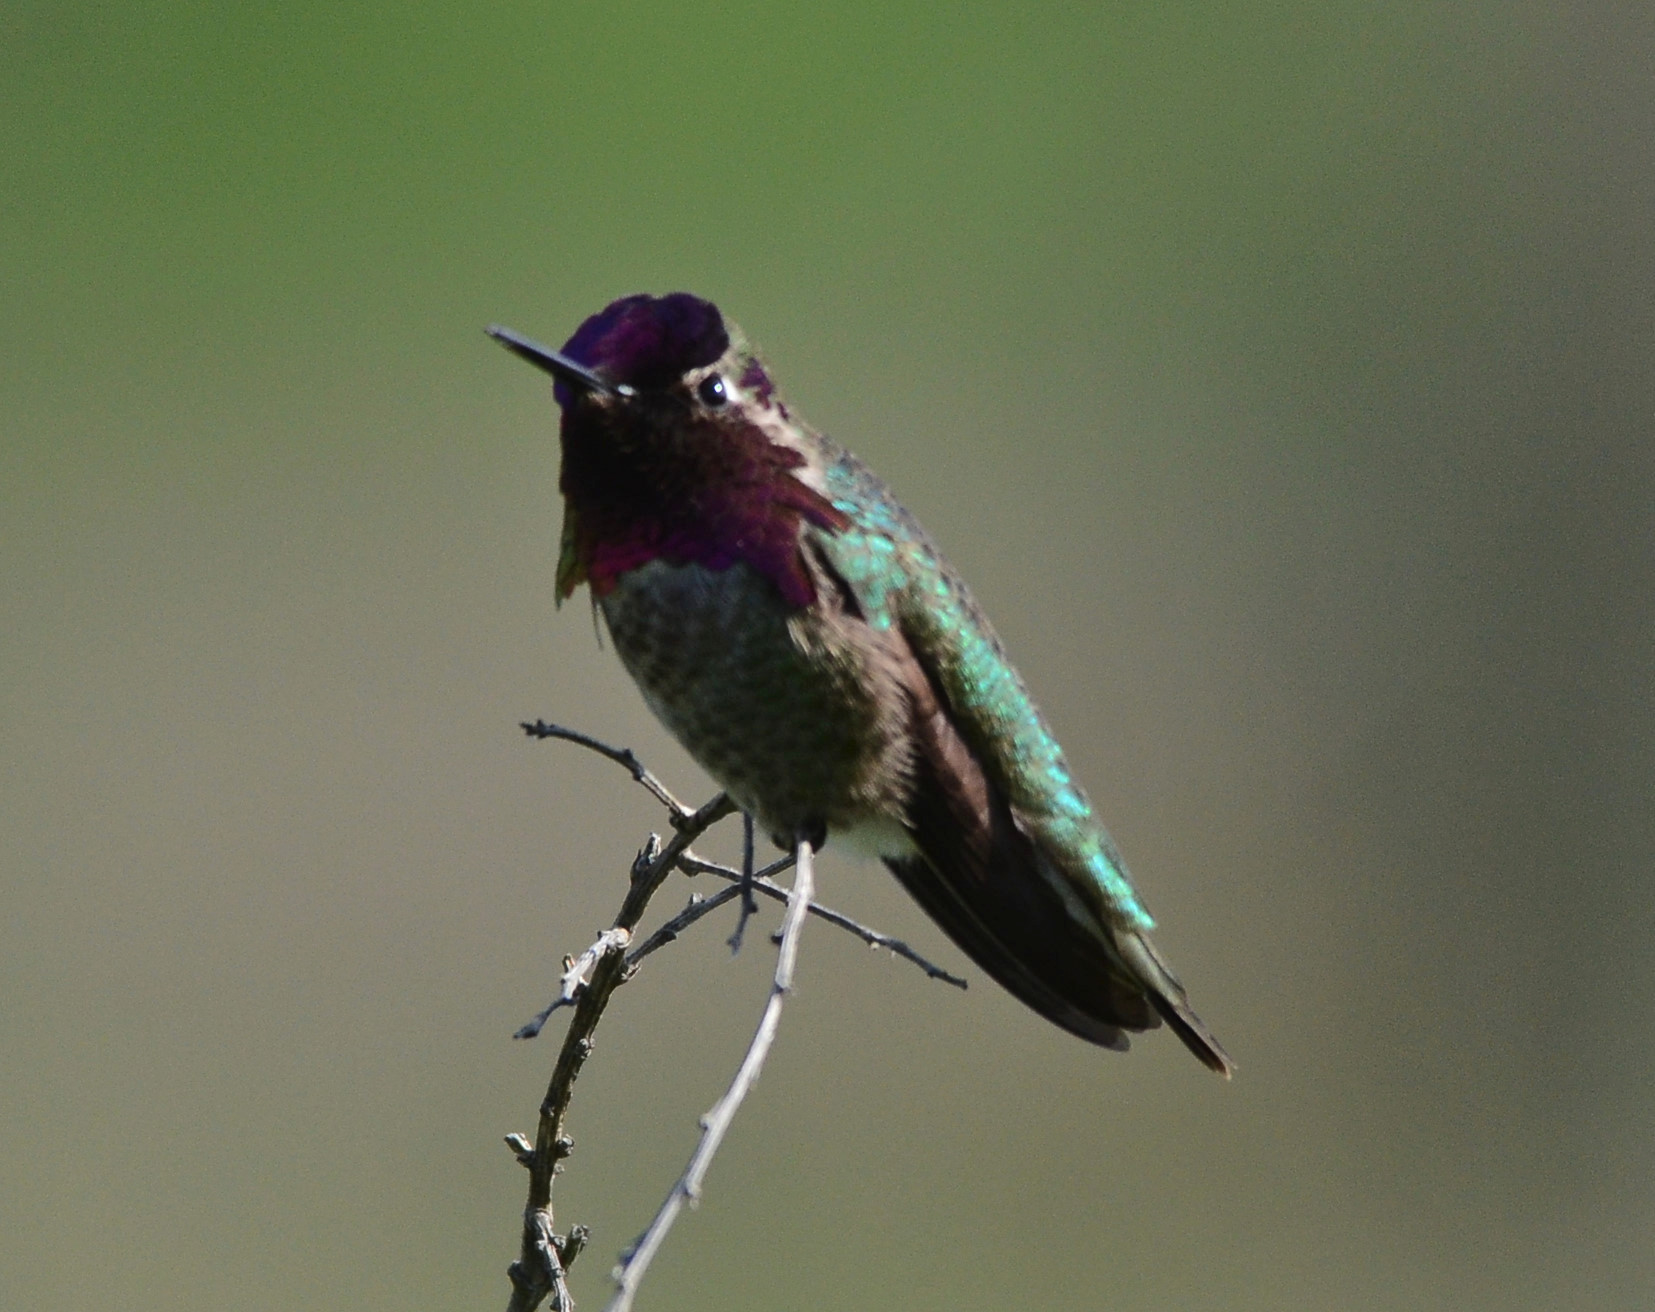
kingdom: Animalia
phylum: Chordata
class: Aves
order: Apodiformes
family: Trochilidae
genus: Calypte
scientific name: Calypte anna
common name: Anna's hummingbird
